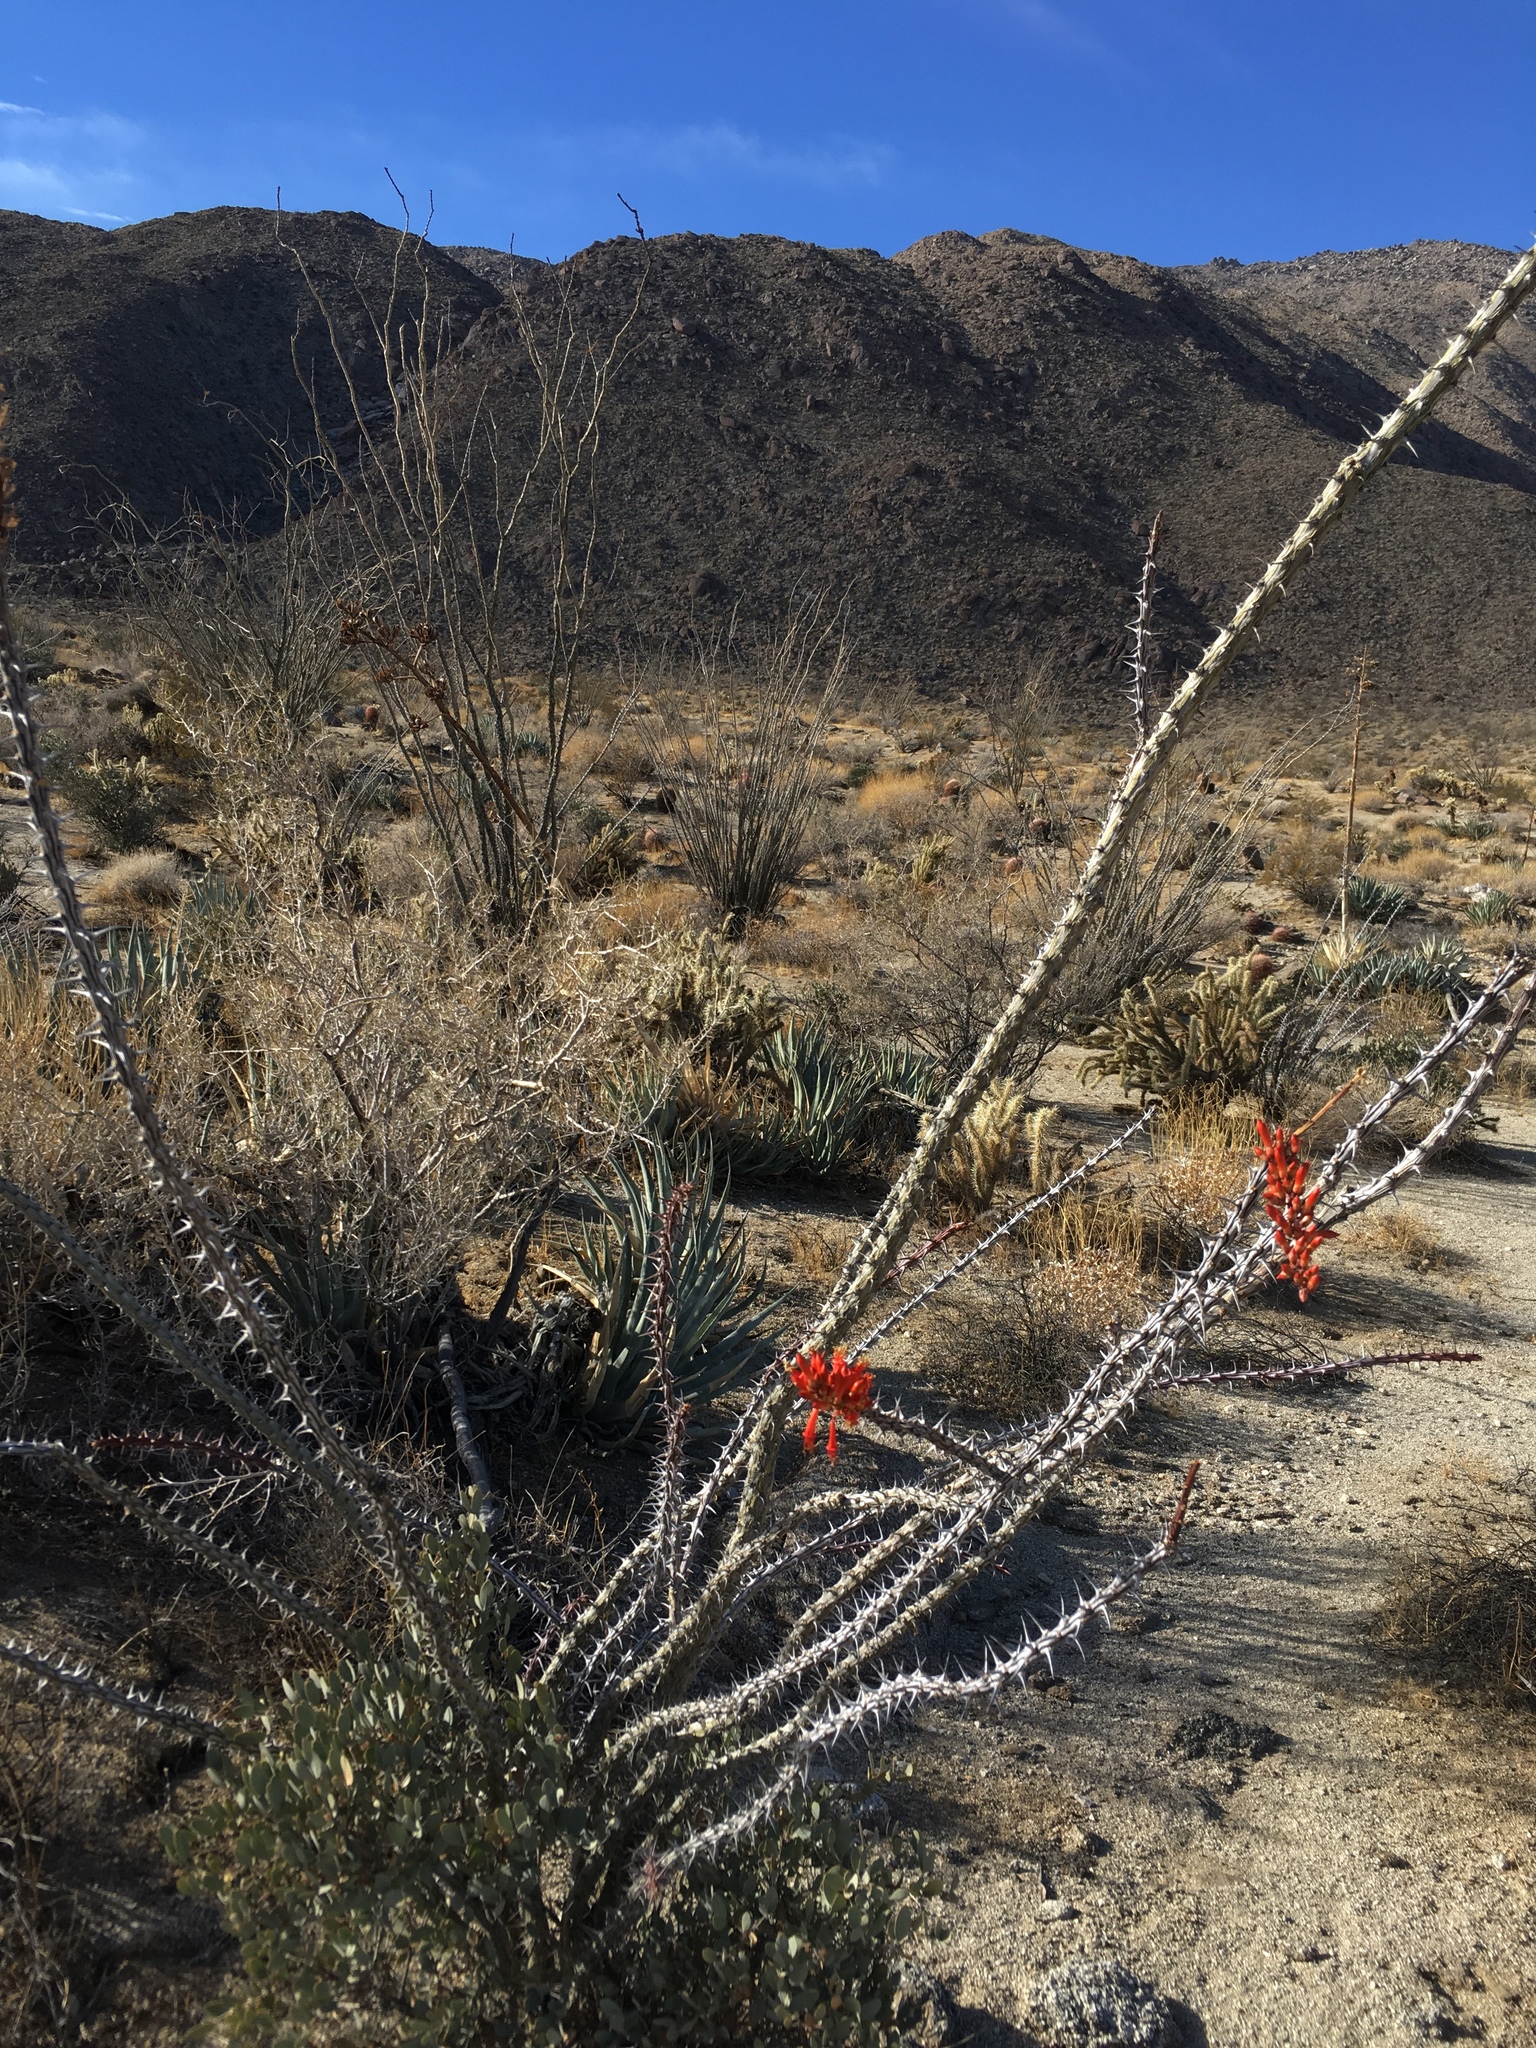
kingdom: Plantae
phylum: Tracheophyta
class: Magnoliopsida
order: Ericales
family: Fouquieriaceae
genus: Fouquieria
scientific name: Fouquieria splendens
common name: Vine-cactus
